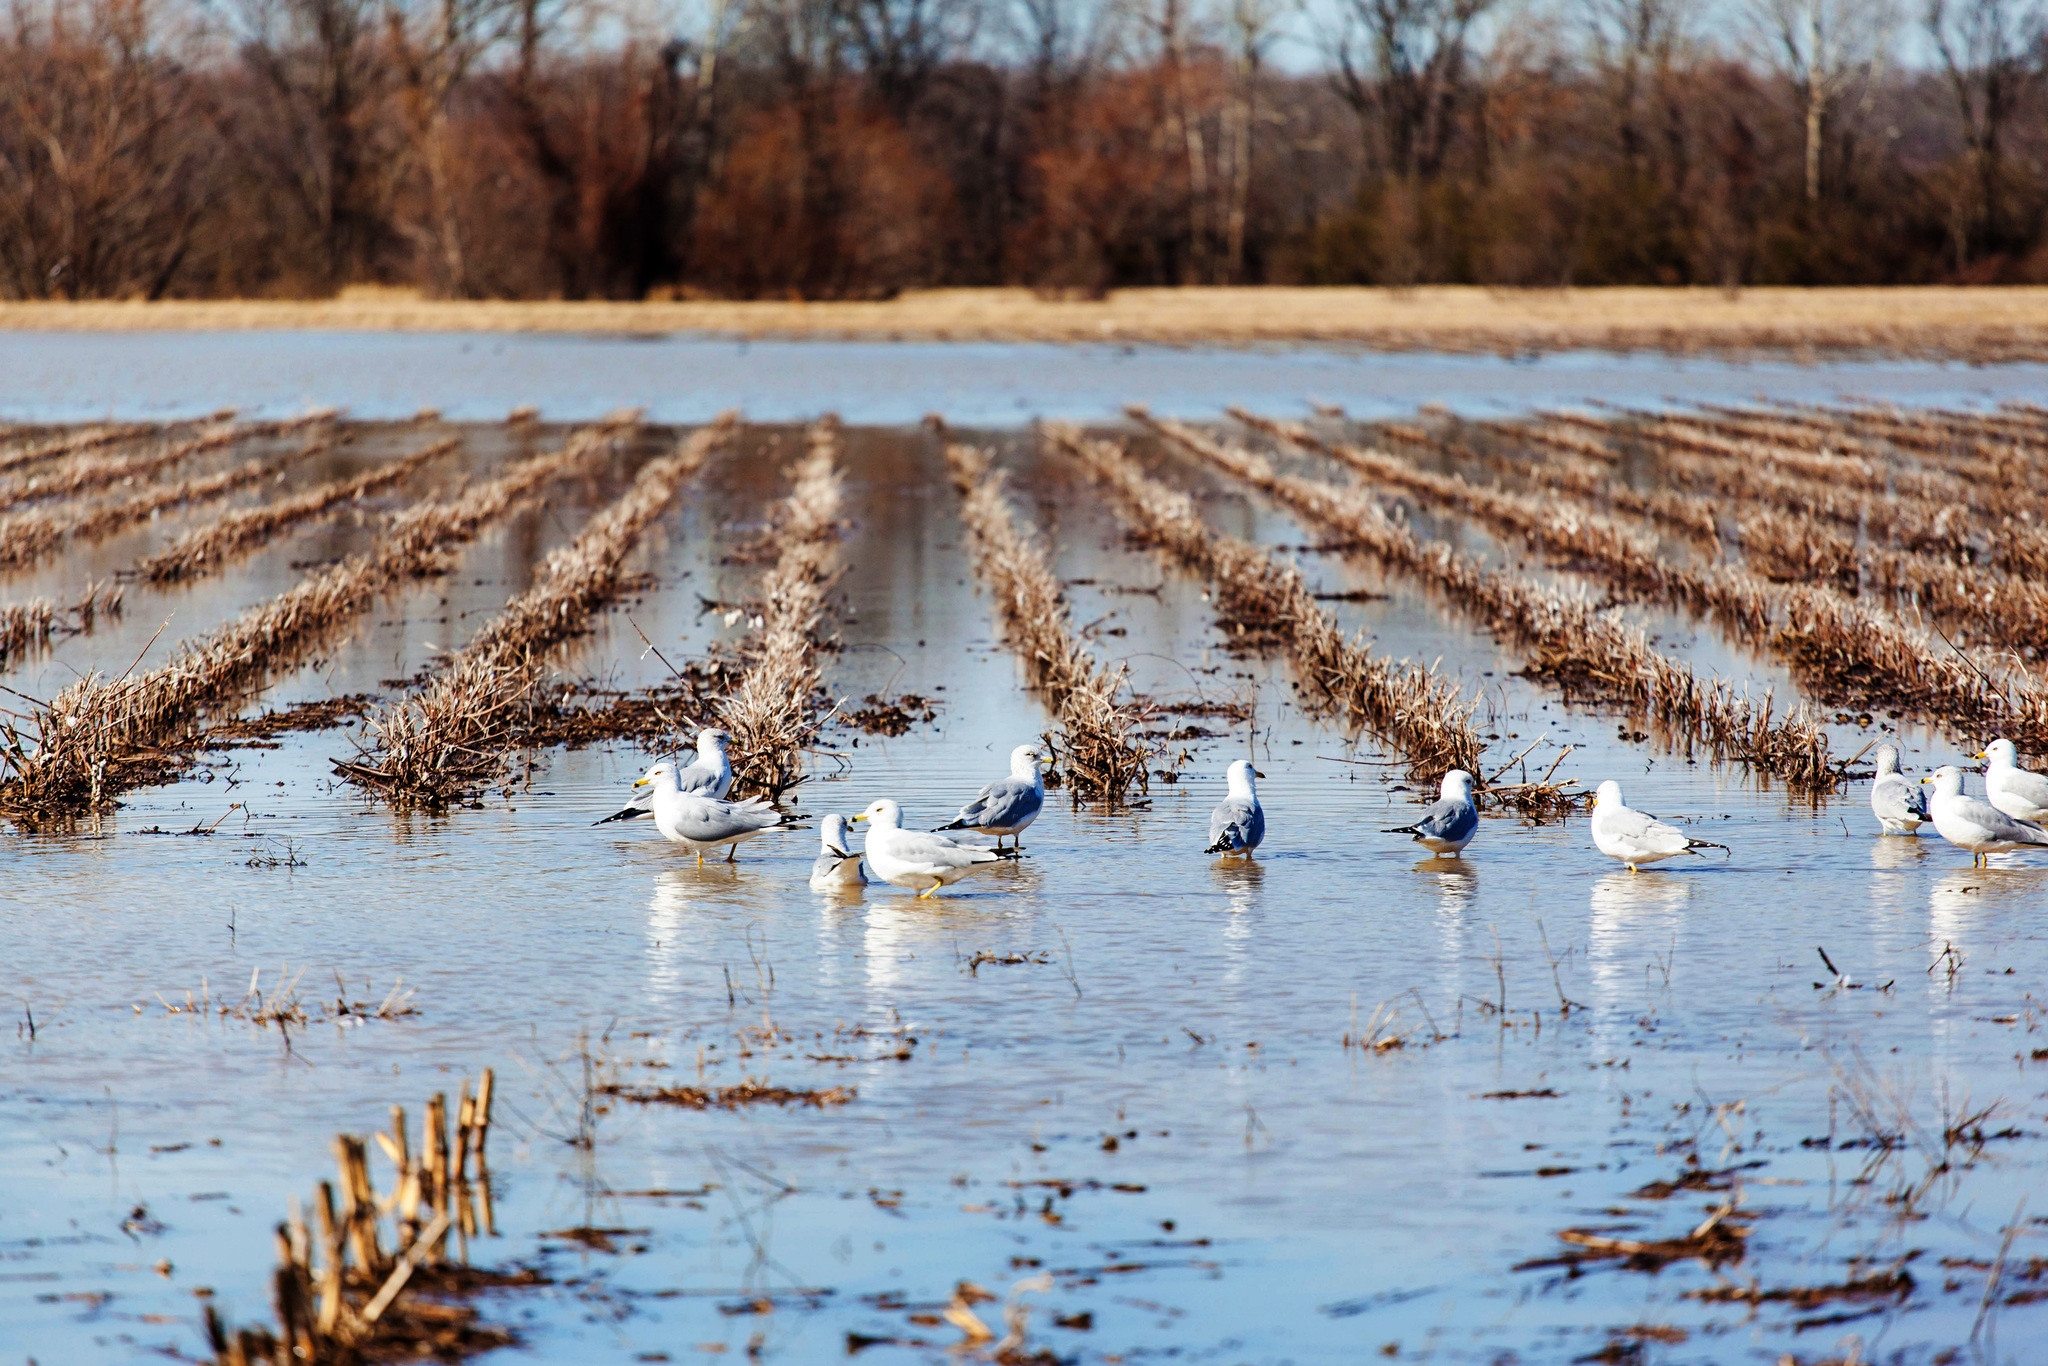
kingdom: Animalia
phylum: Chordata
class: Aves
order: Charadriiformes
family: Laridae
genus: Larus
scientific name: Larus delawarensis
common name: Ring-billed gull
